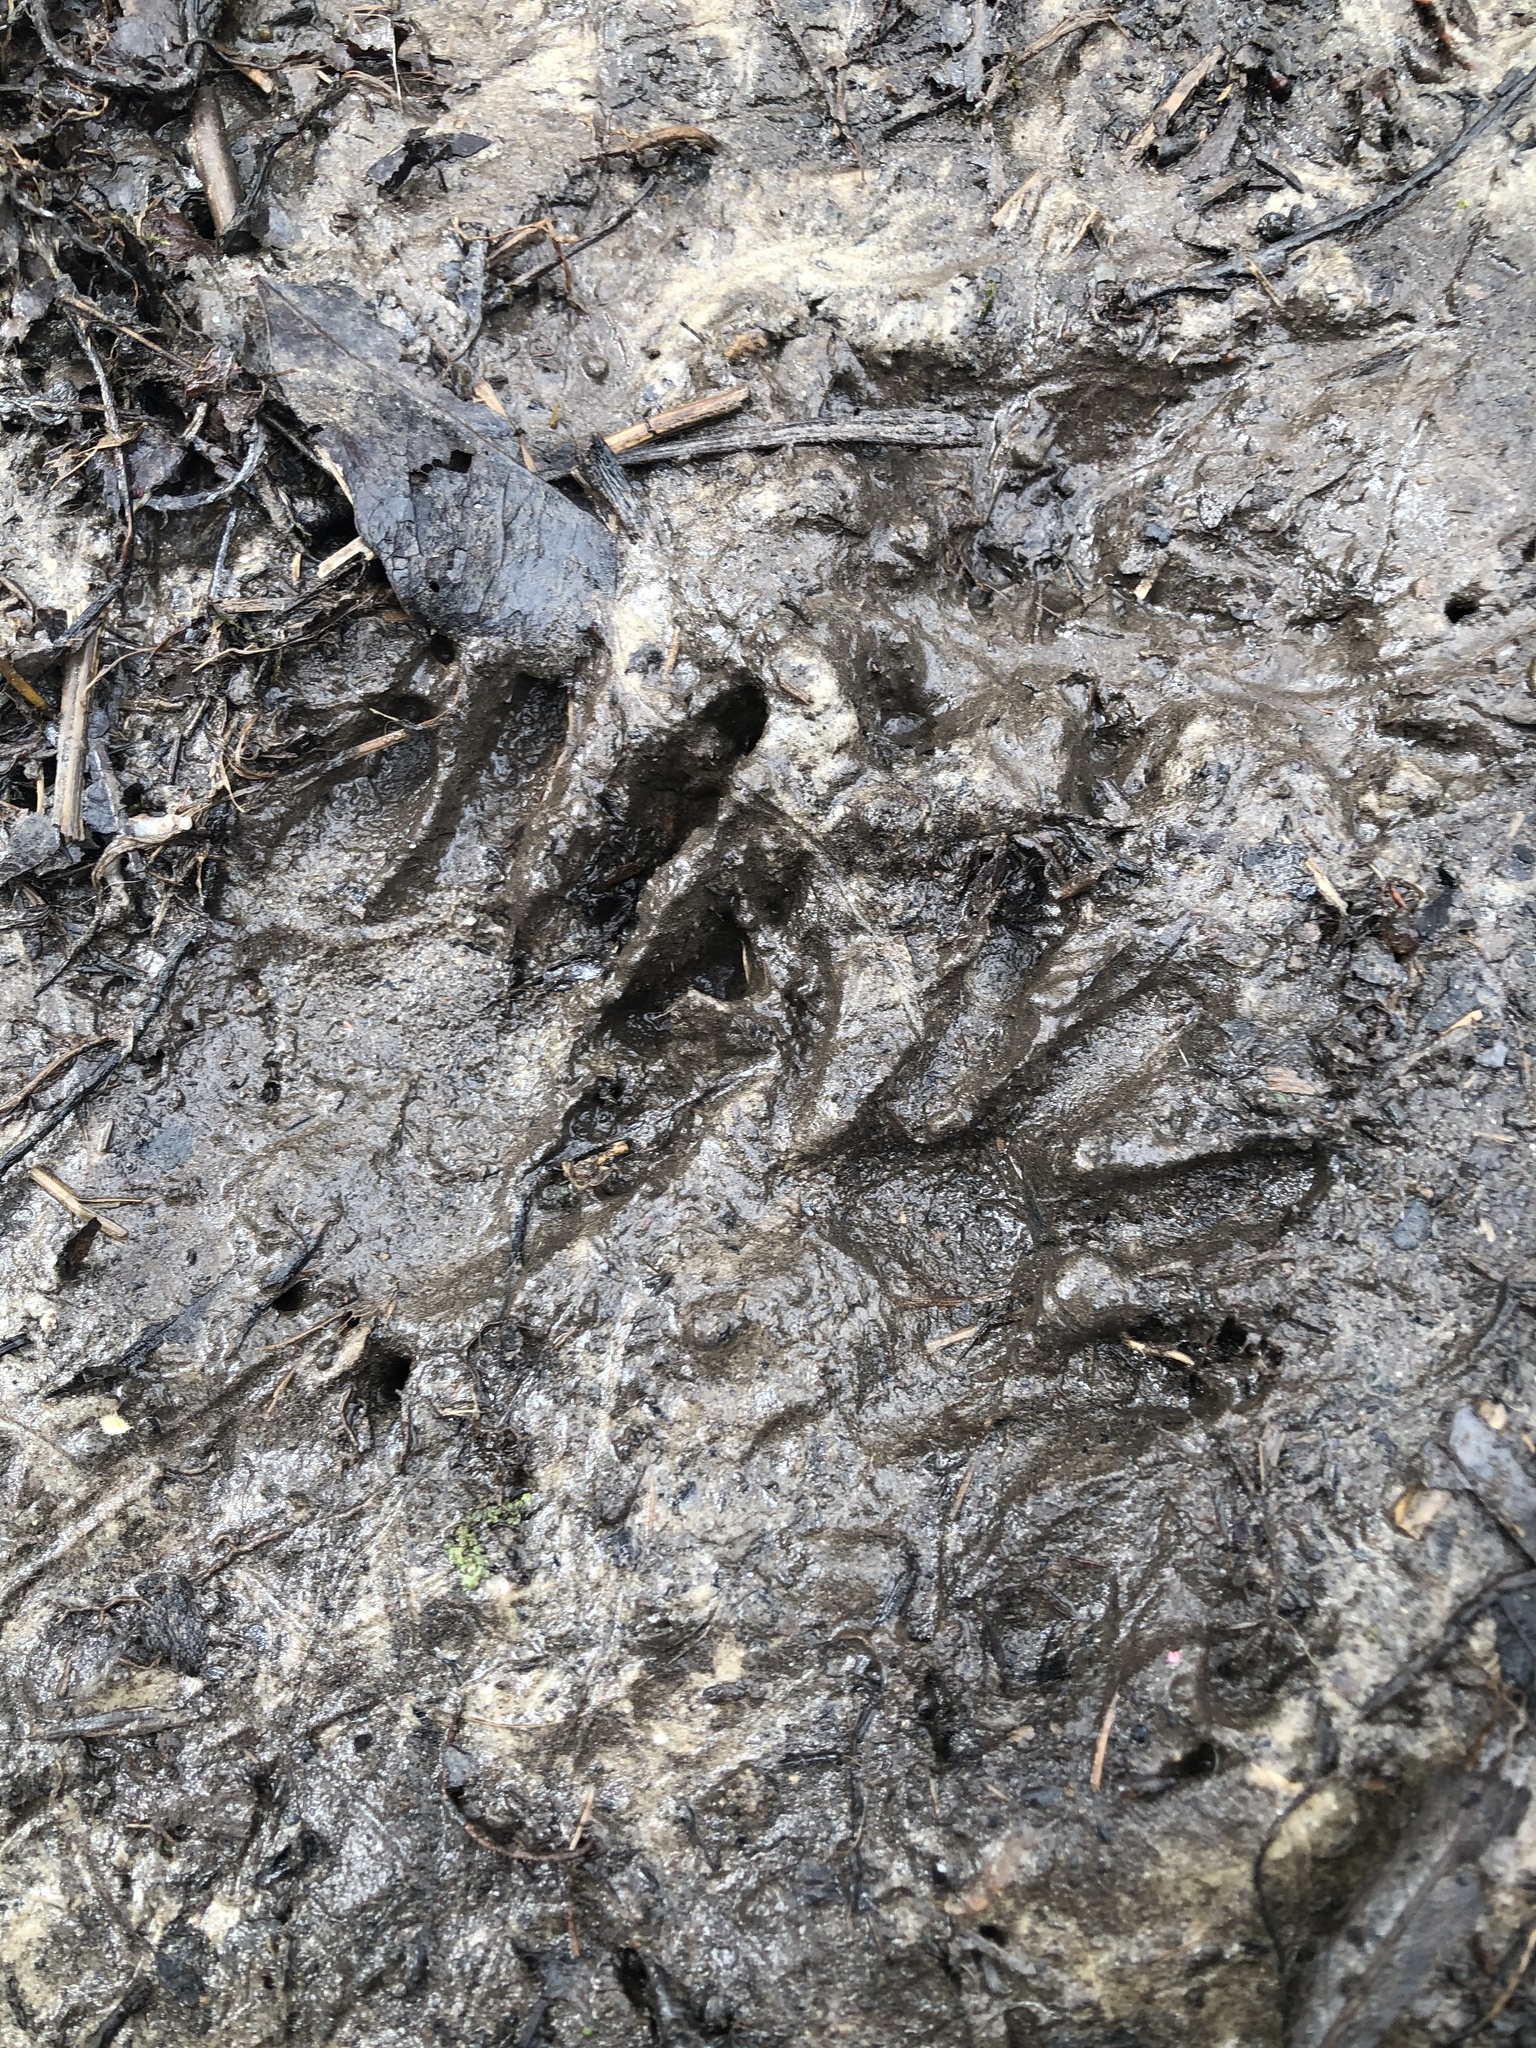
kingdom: Animalia
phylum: Chordata
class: Mammalia
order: Carnivora
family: Procyonidae
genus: Procyon
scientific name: Procyon lotor
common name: Raccoon
